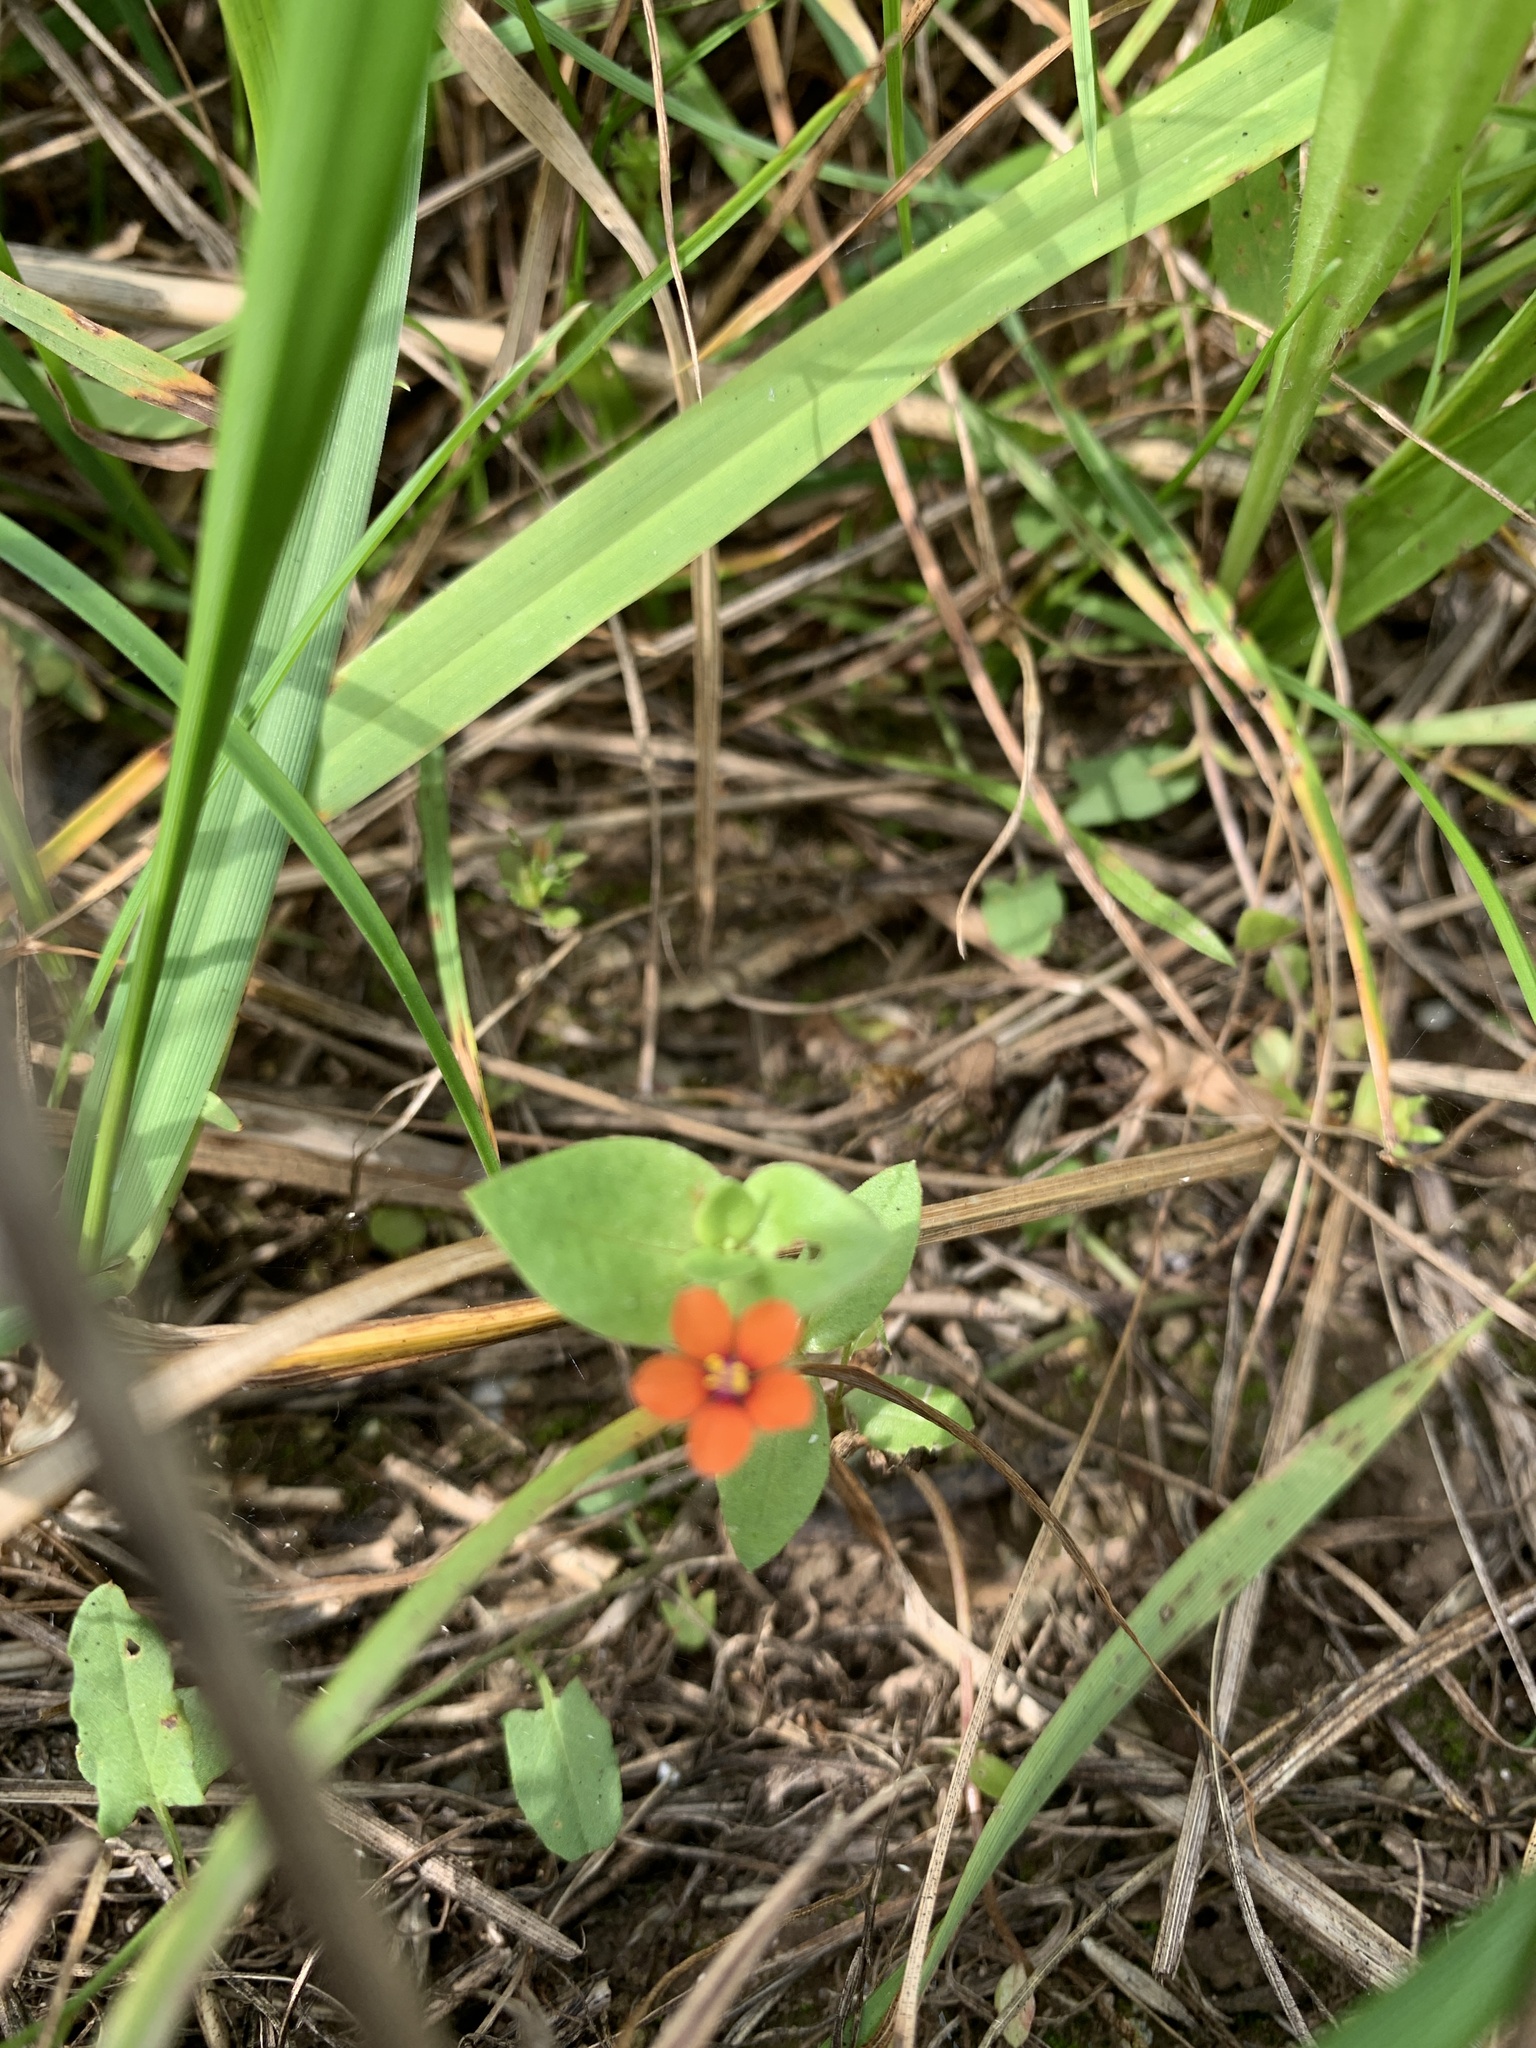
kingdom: Plantae
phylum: Tracheophyta
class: Magnoliopsida
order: Ericales
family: Primulaceae
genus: Lysimachia
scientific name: Lysimachia arvensis
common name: Scarlet pimpernel
